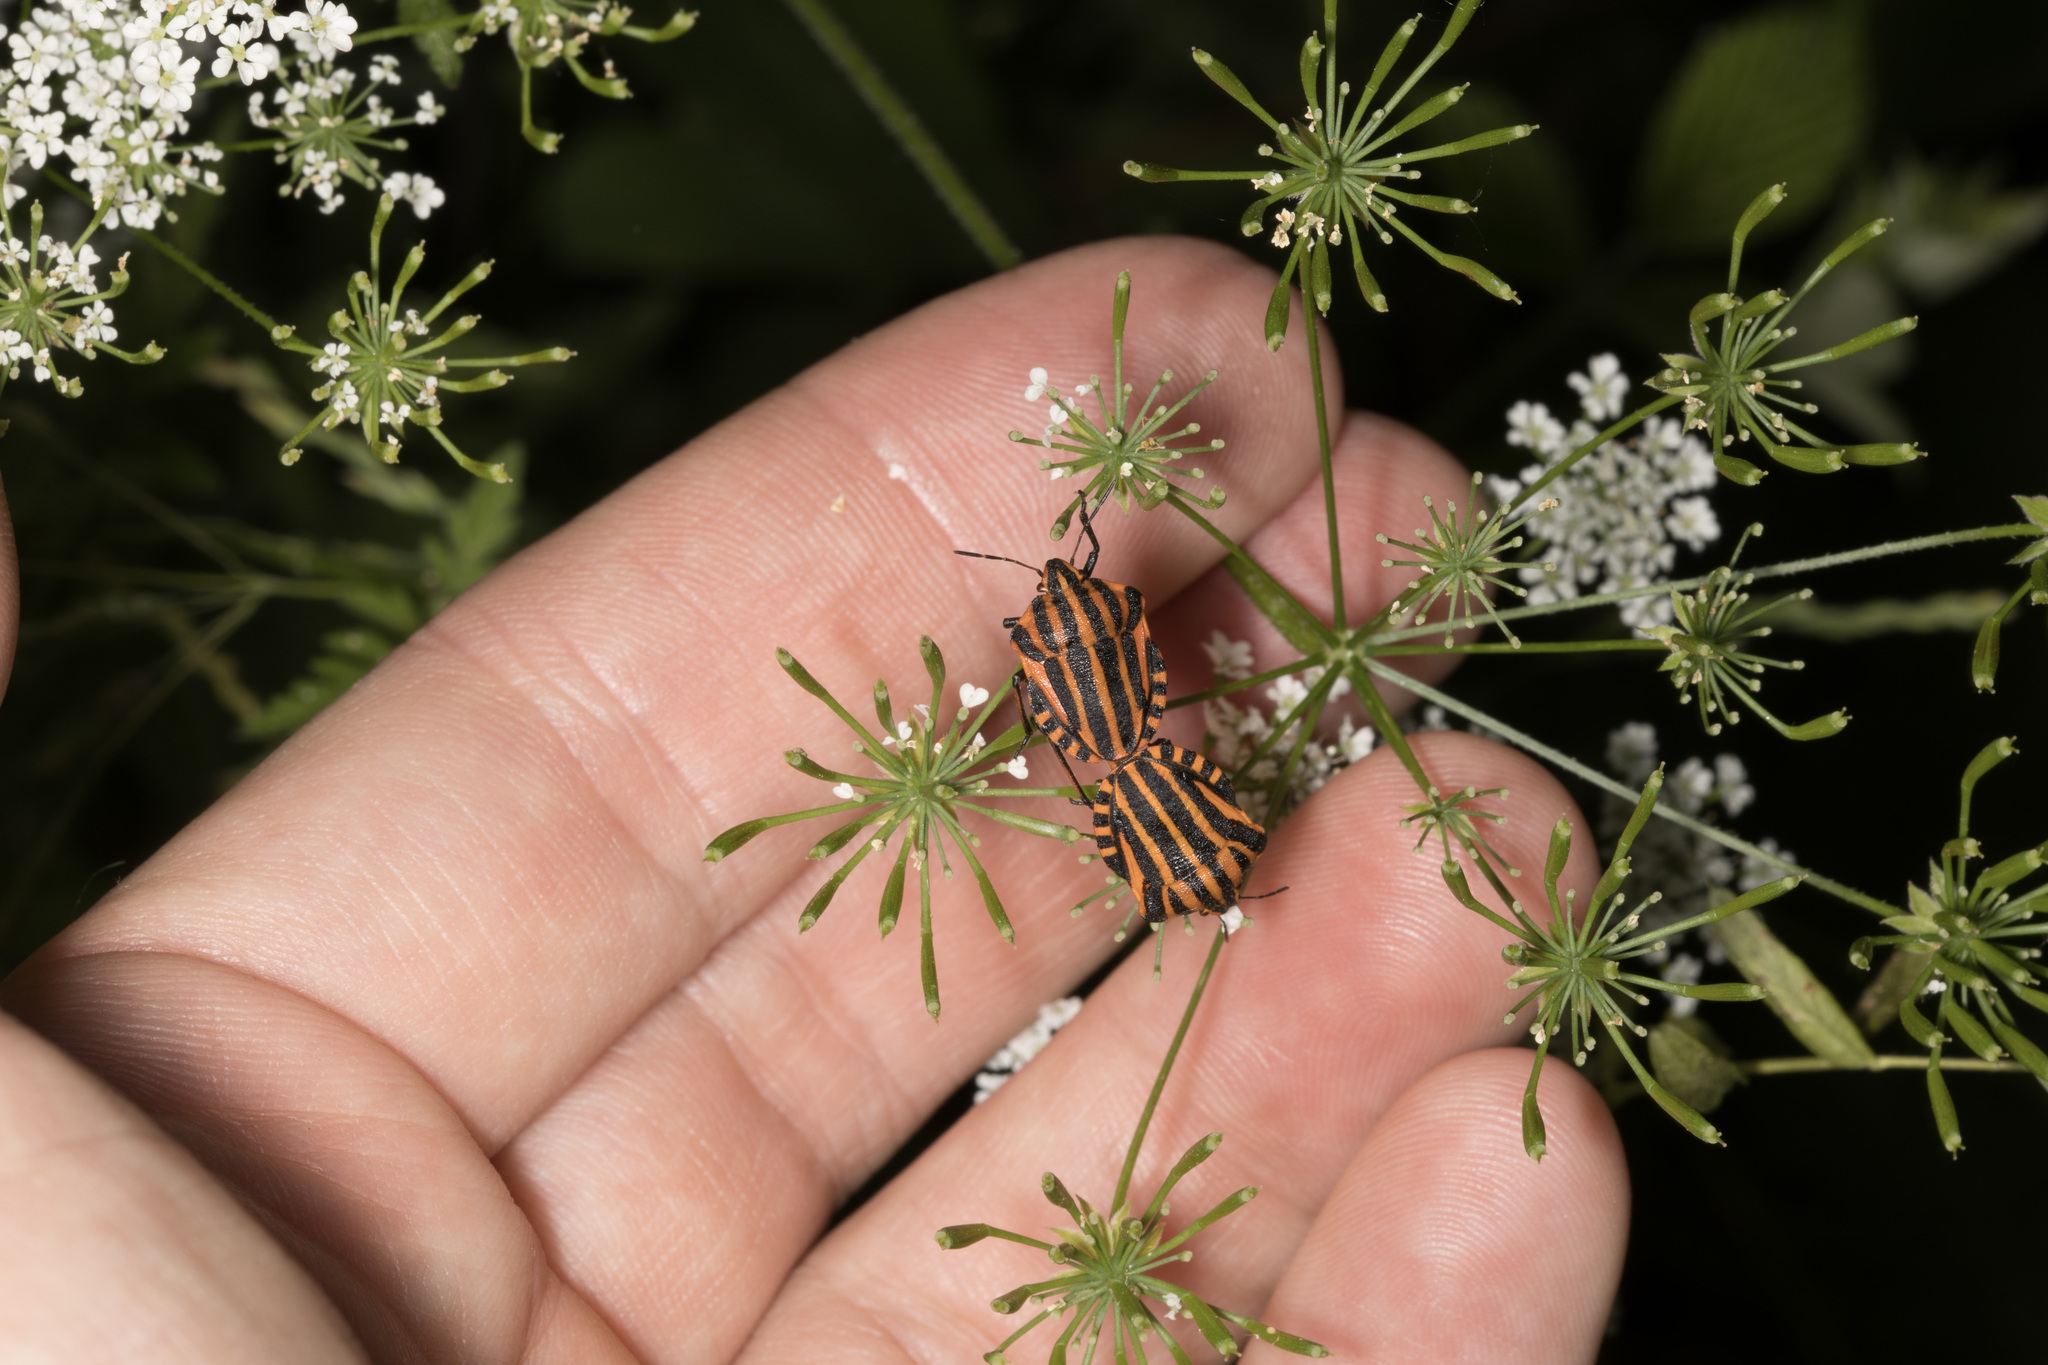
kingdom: Animalia
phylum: Arthropoda
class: Insecta
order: Hemiptera
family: Pentatomidae
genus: Graphosoma
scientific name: Graphosoma italicum
